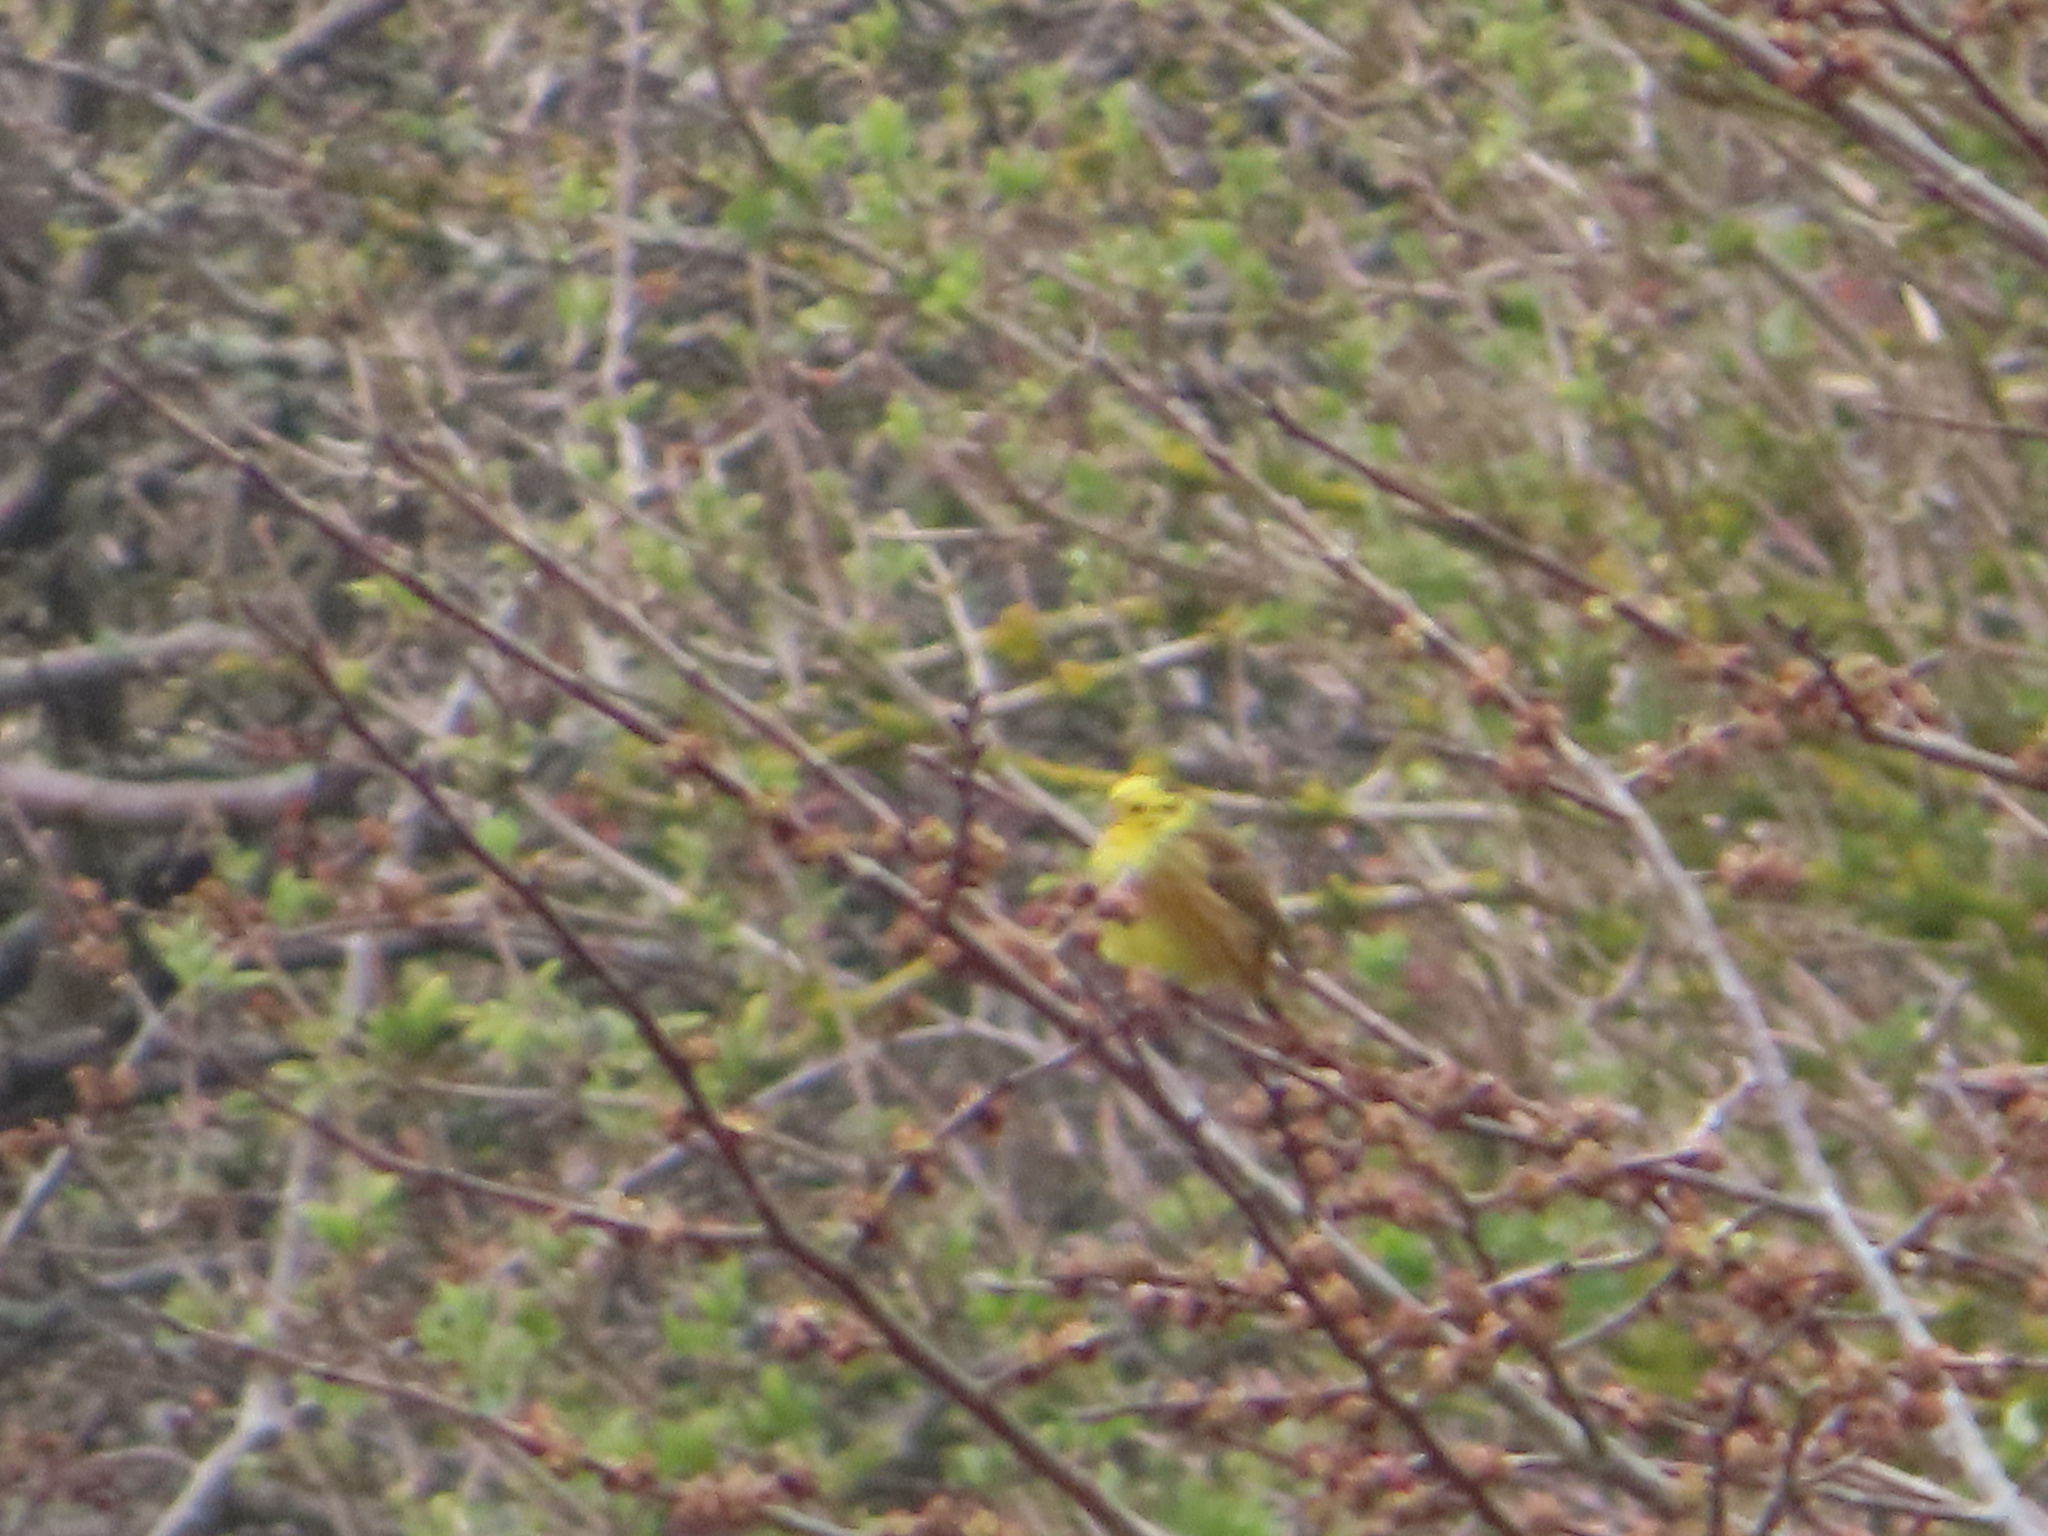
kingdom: Animalia
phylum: Chordata
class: Aves
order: Passeriformes
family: Emberizidae
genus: Emberiza
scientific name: Emberiza citrinella
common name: Yellowhammer
